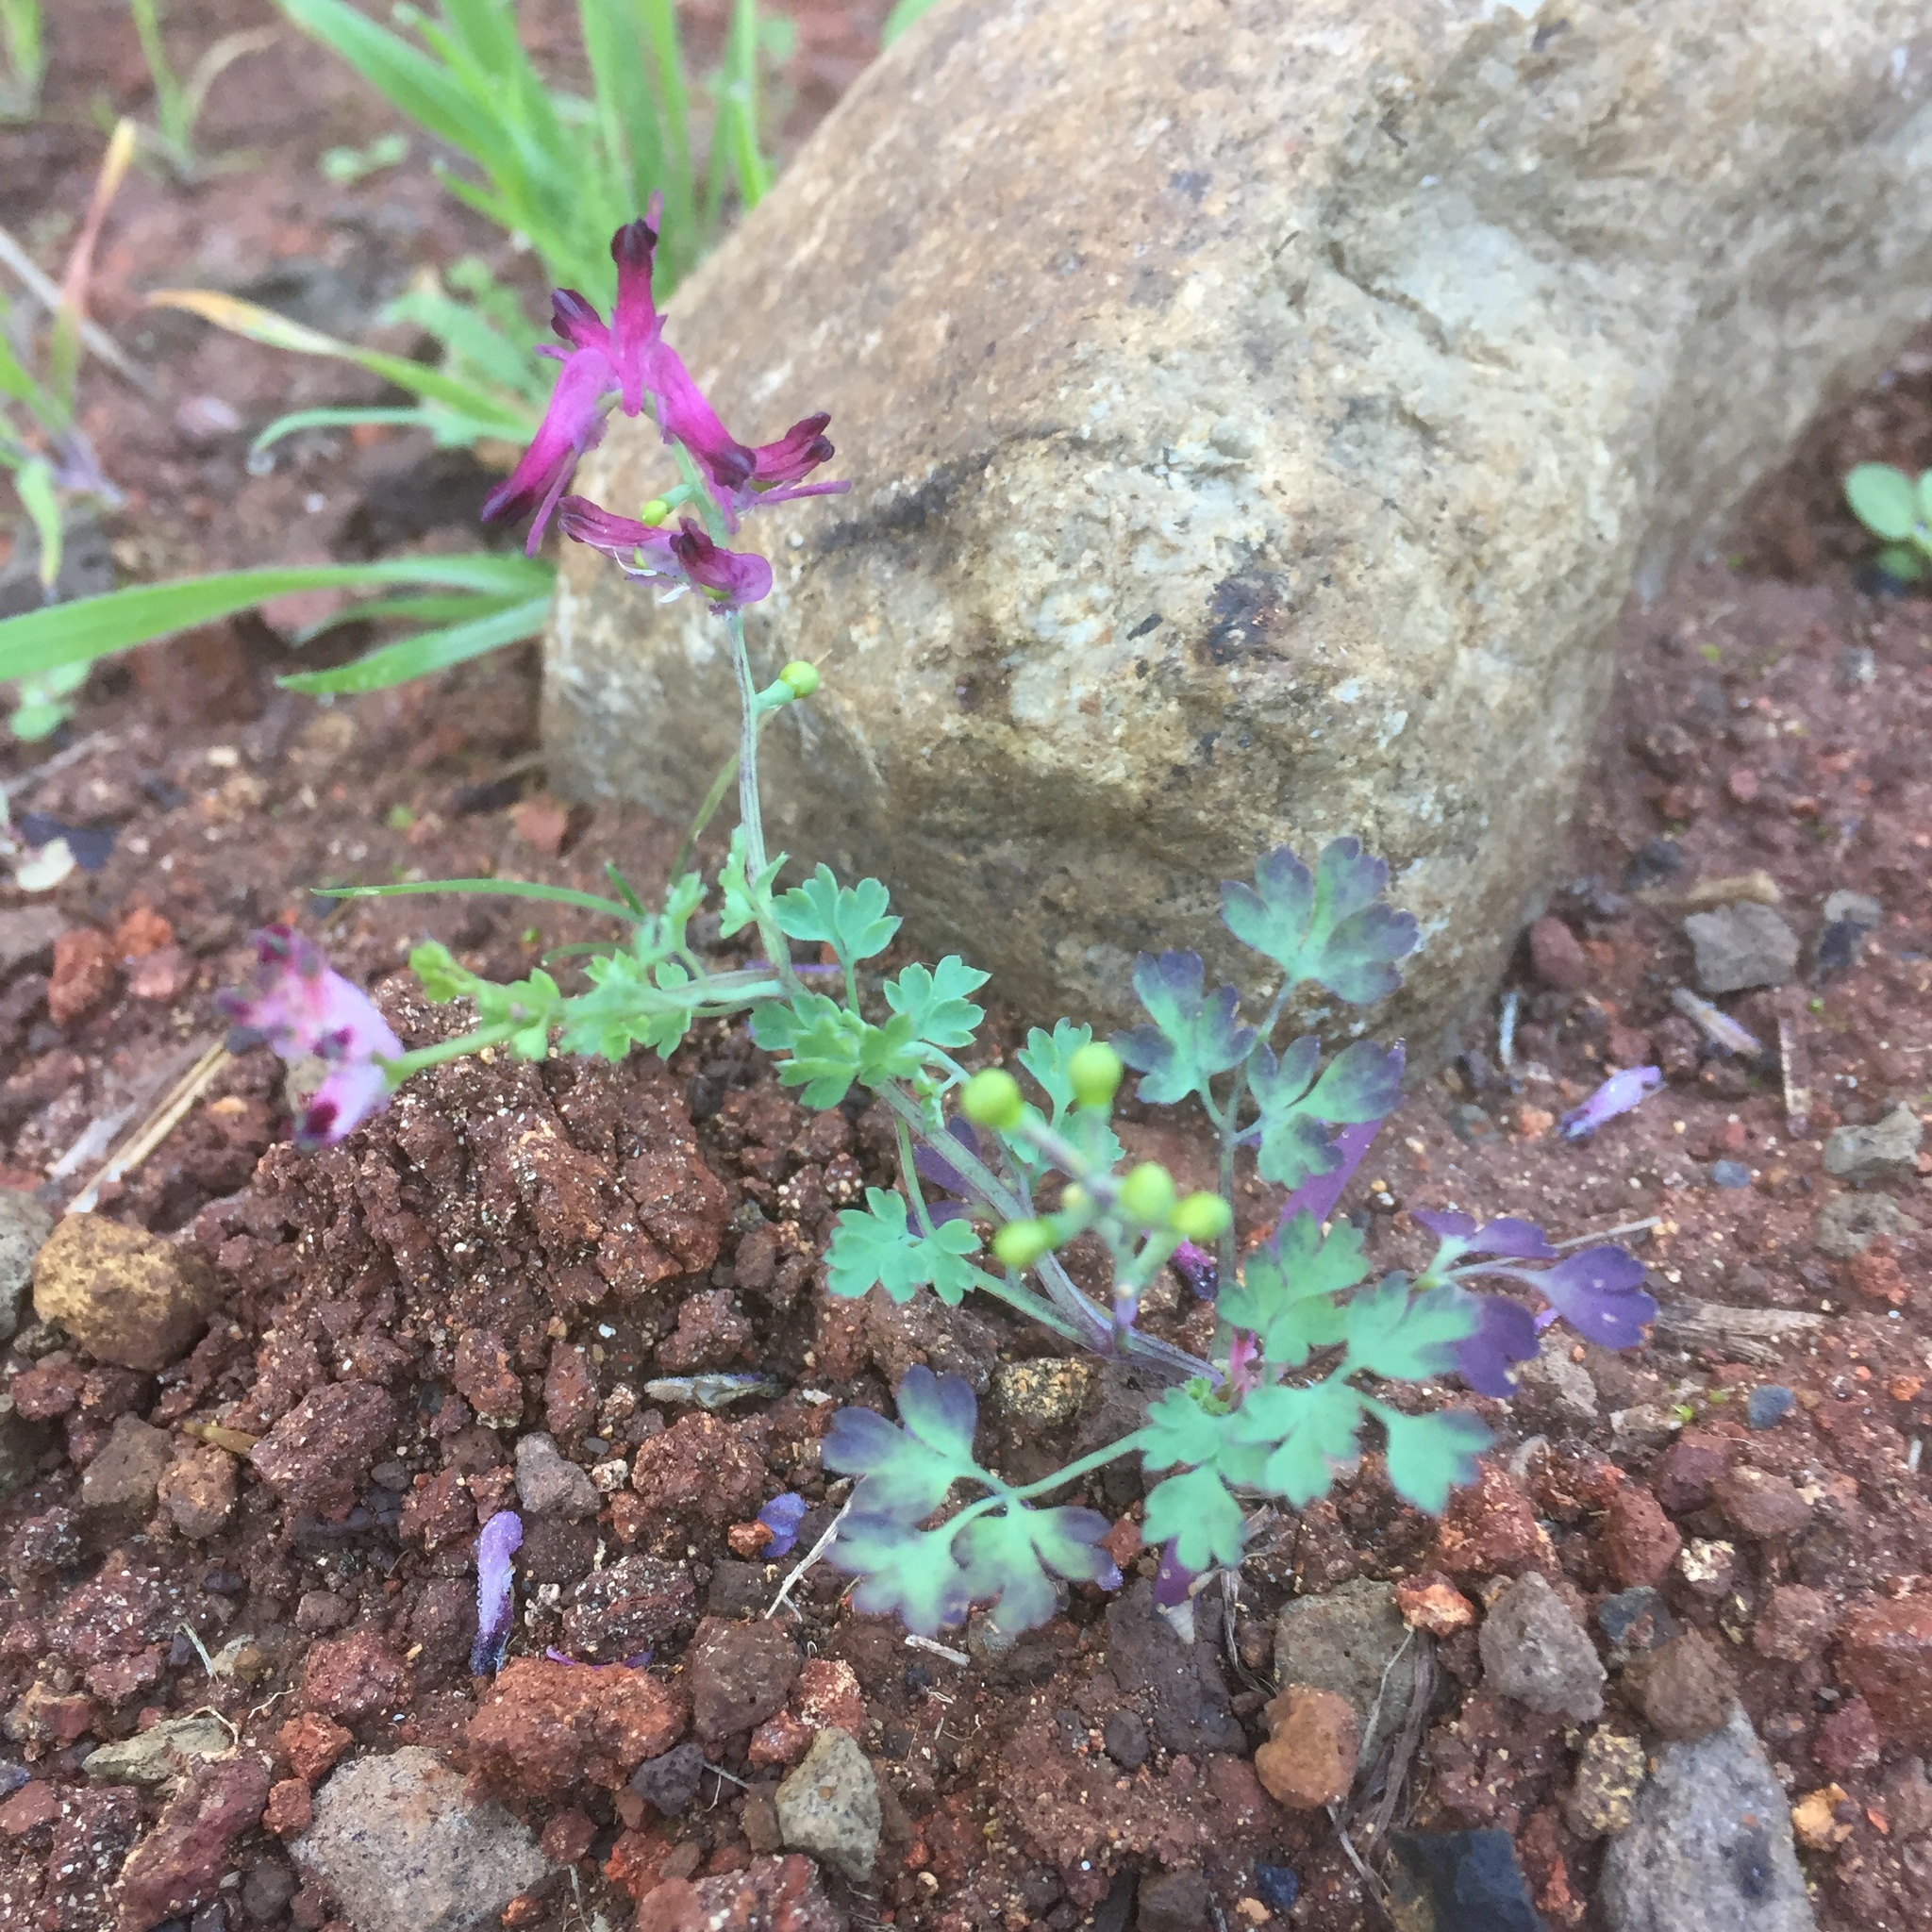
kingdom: Plantae
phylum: Tracheophyta
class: Magnoliopsida
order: Ranunculales
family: Papaveraceae
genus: Fumaria
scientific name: Fumaria muralis
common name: Common ramping-fumitory
